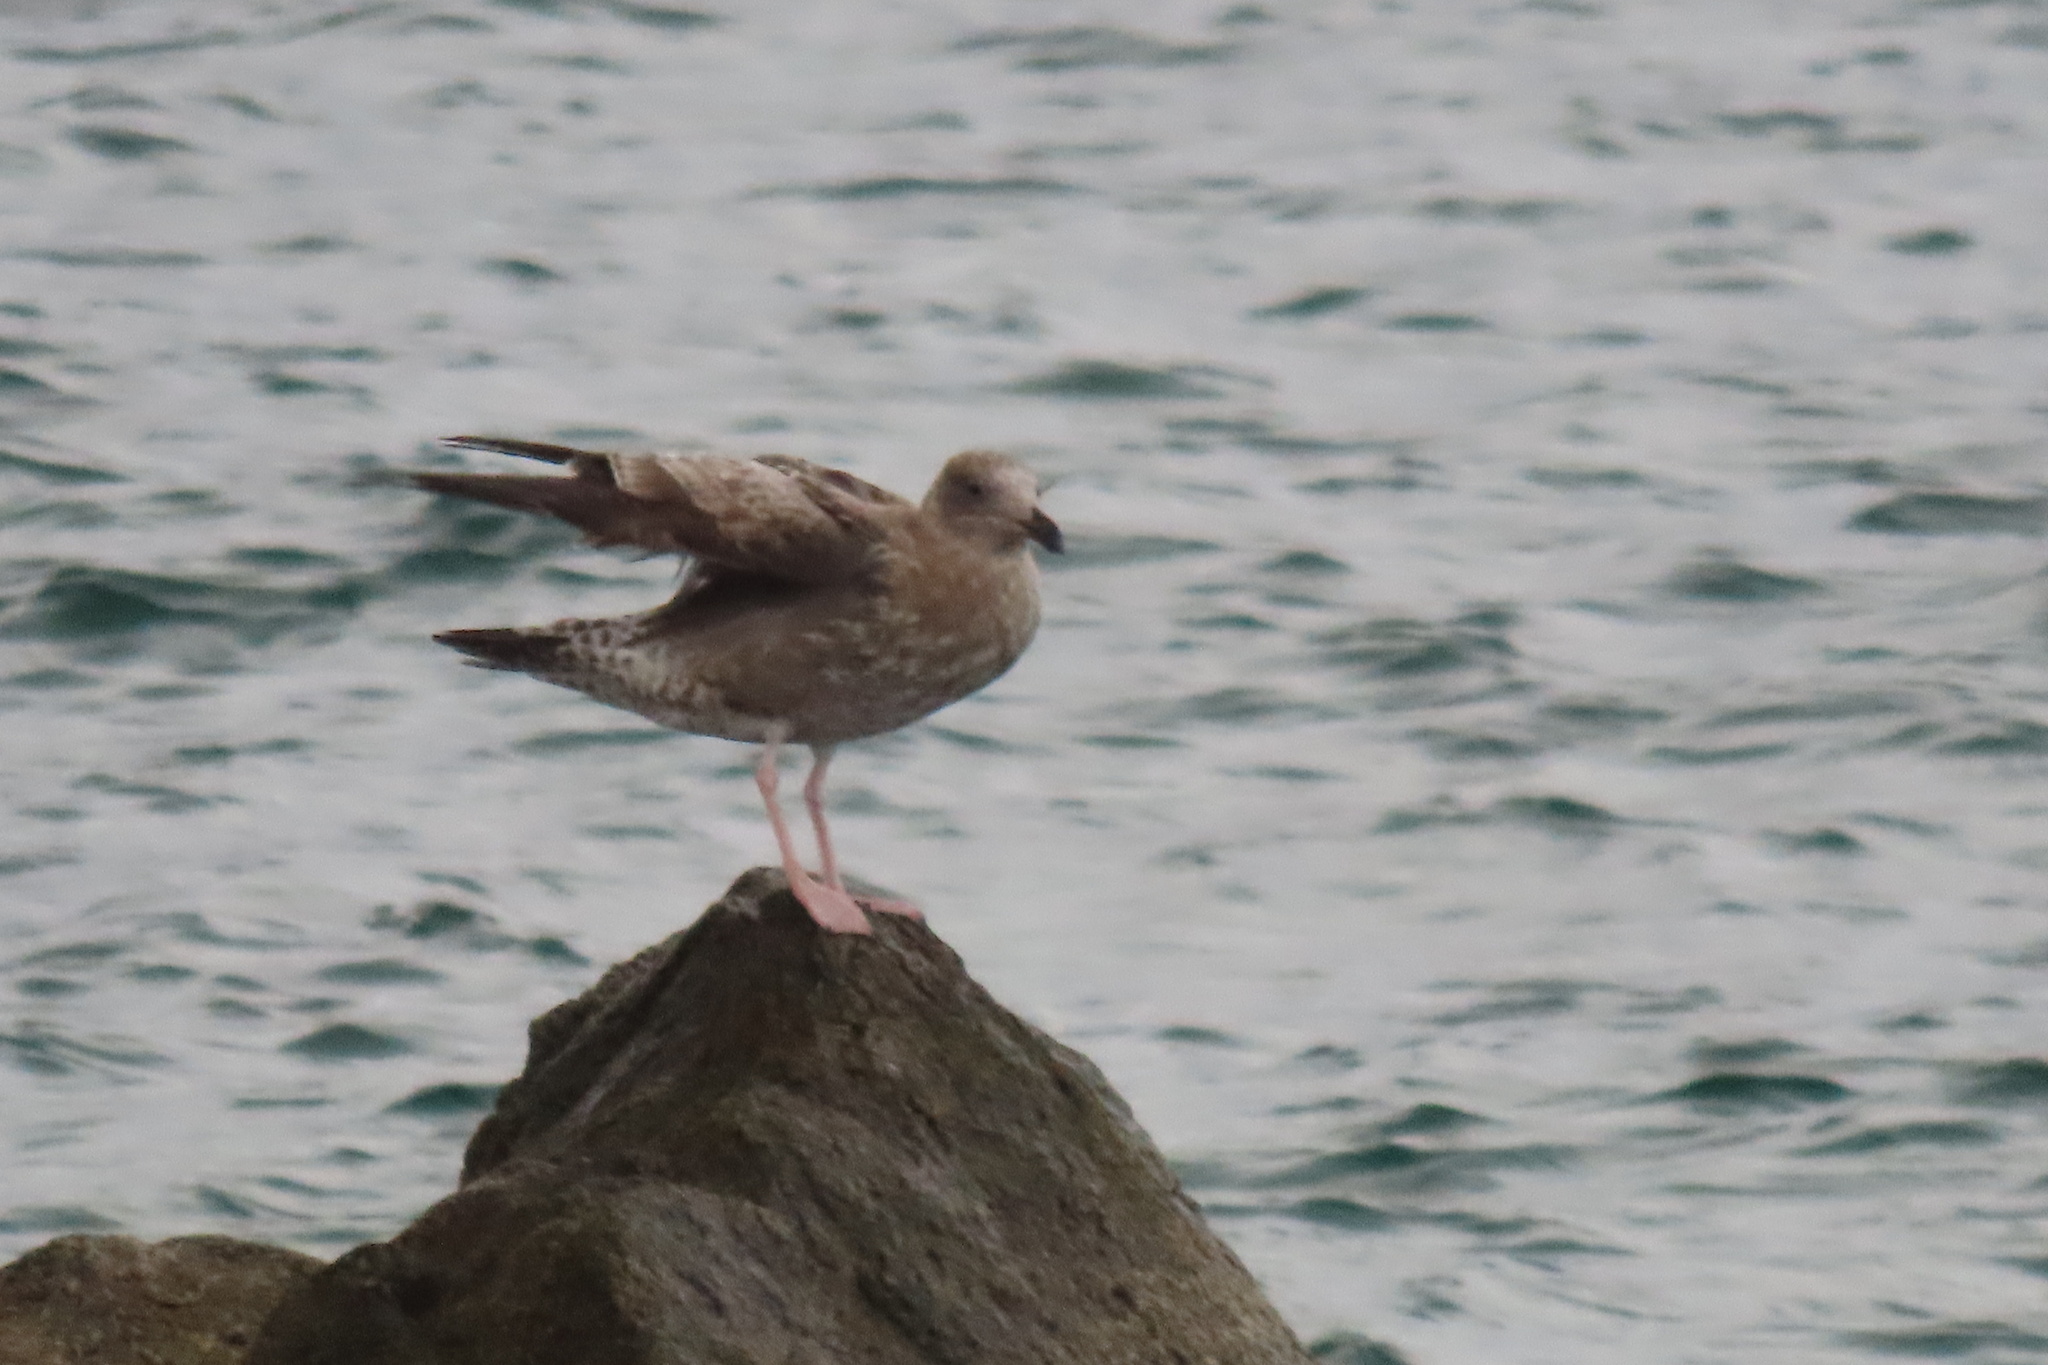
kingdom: Animalia
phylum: Chordata
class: Aves
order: Charadriiformes
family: Laridae
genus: Larus
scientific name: Larus occidentalis
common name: Western gull
